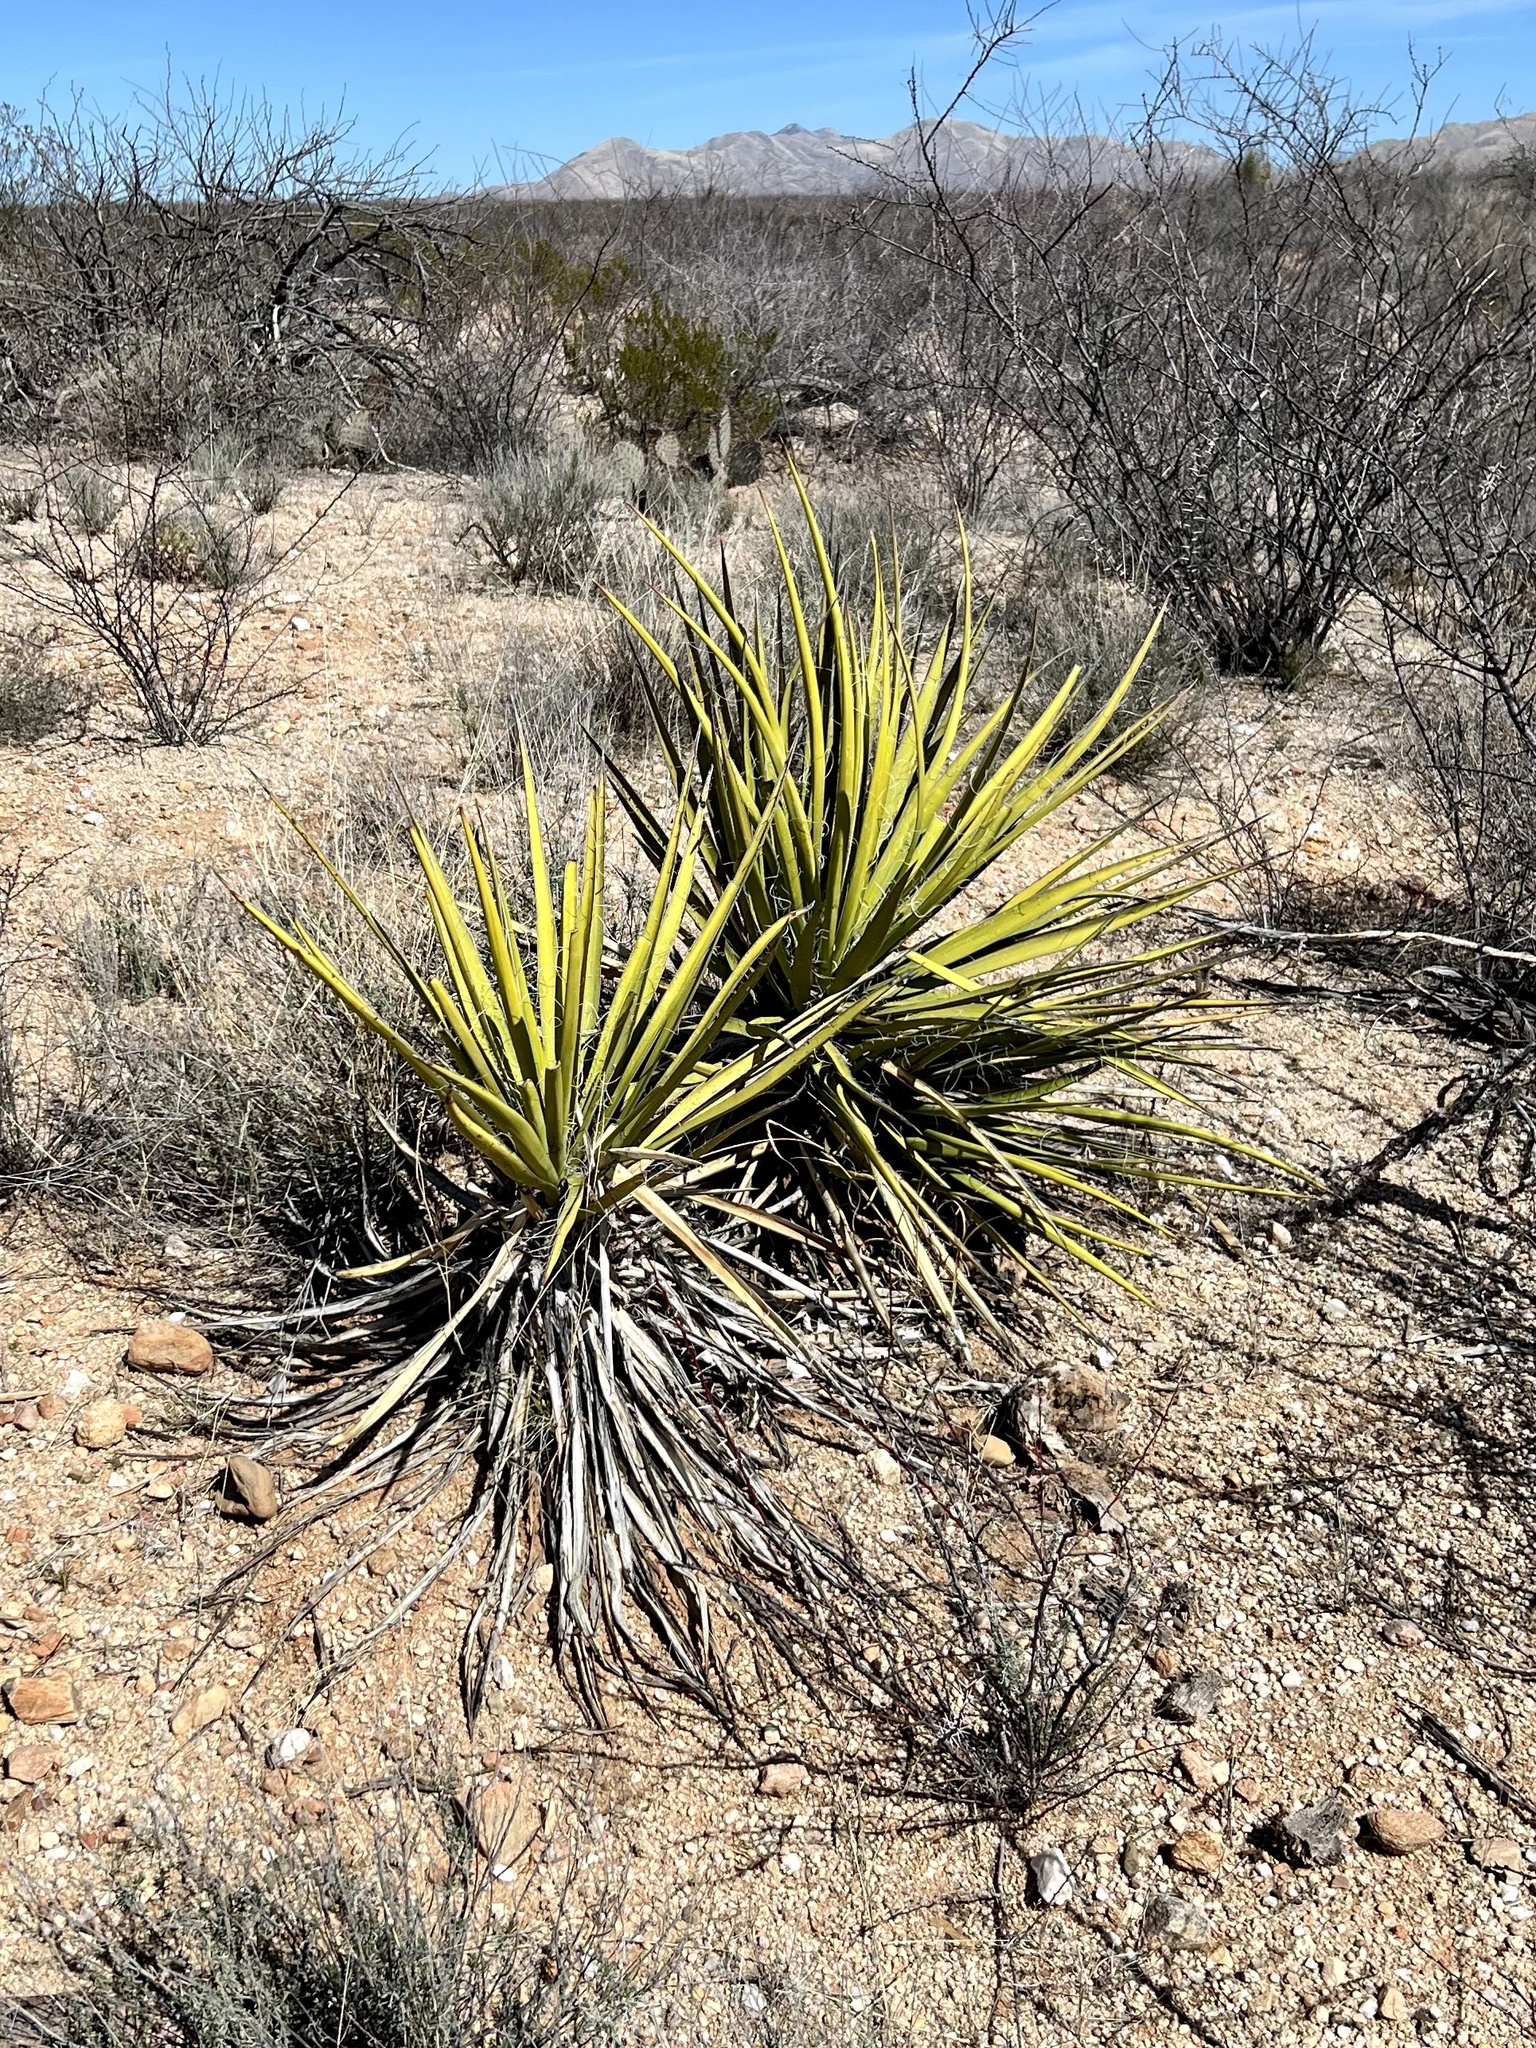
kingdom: Plantae
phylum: Tracheophyta
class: Liliopsida
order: Asparagales
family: Asparagaceae
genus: Yucca
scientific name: Yucca baccata
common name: Banana yucca
